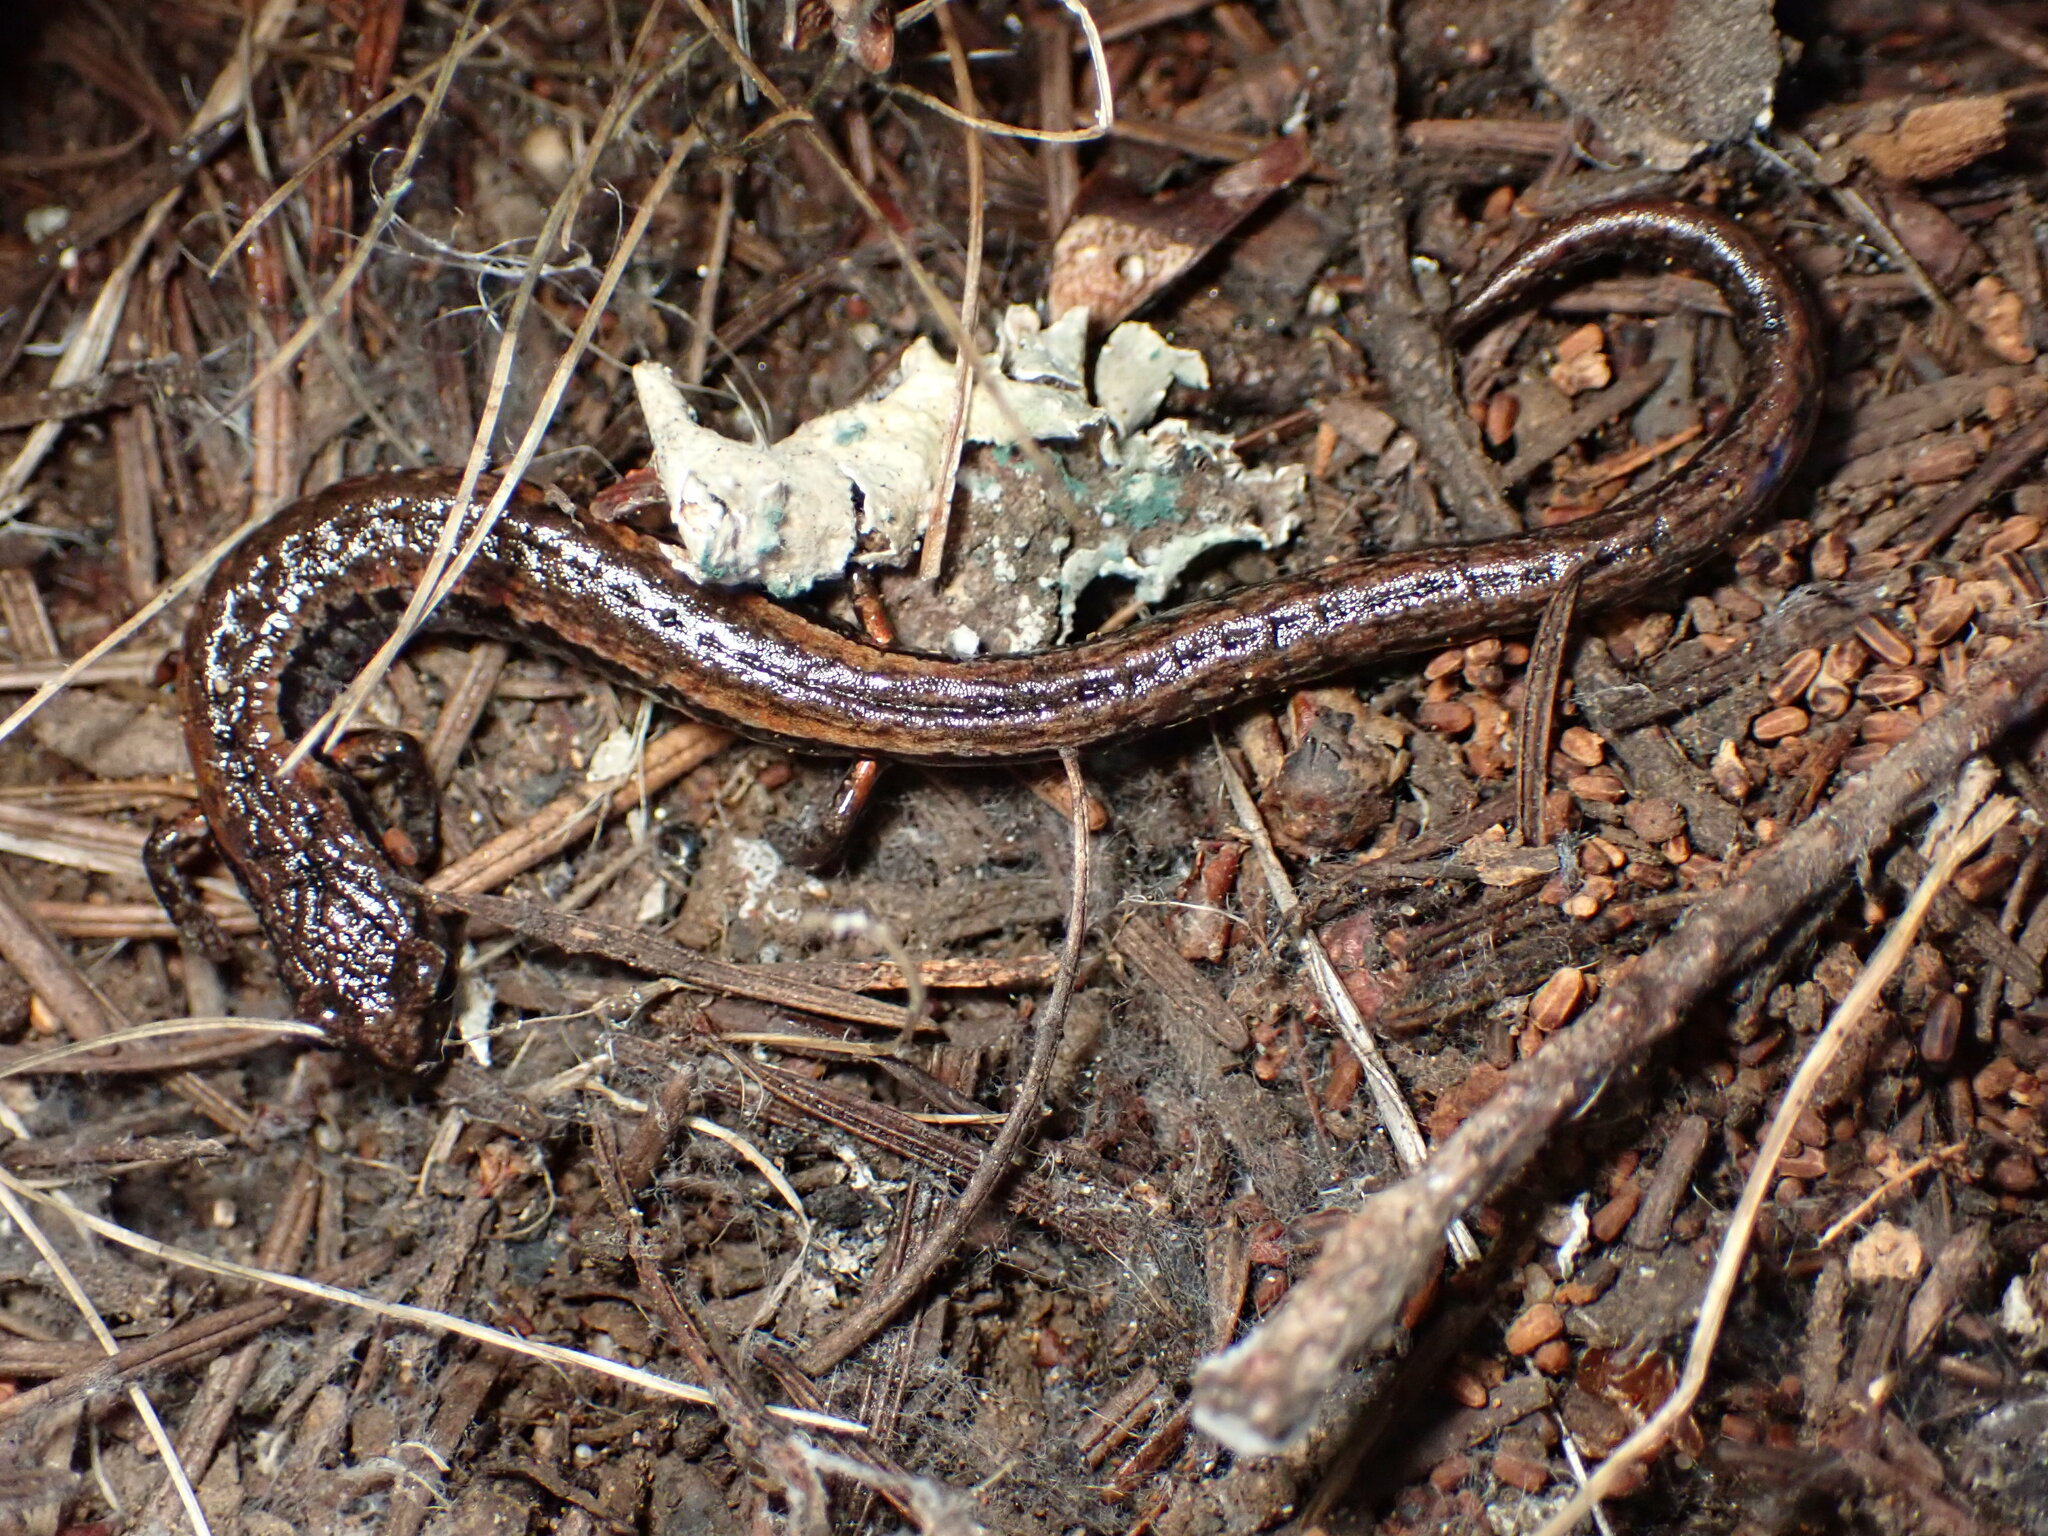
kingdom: Animalia
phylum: Chordata
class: Amphibia
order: Caudata
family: Plethodontidae
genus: Batrachoseps
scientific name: Batrachoseps attenuatus
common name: California slender salamander
